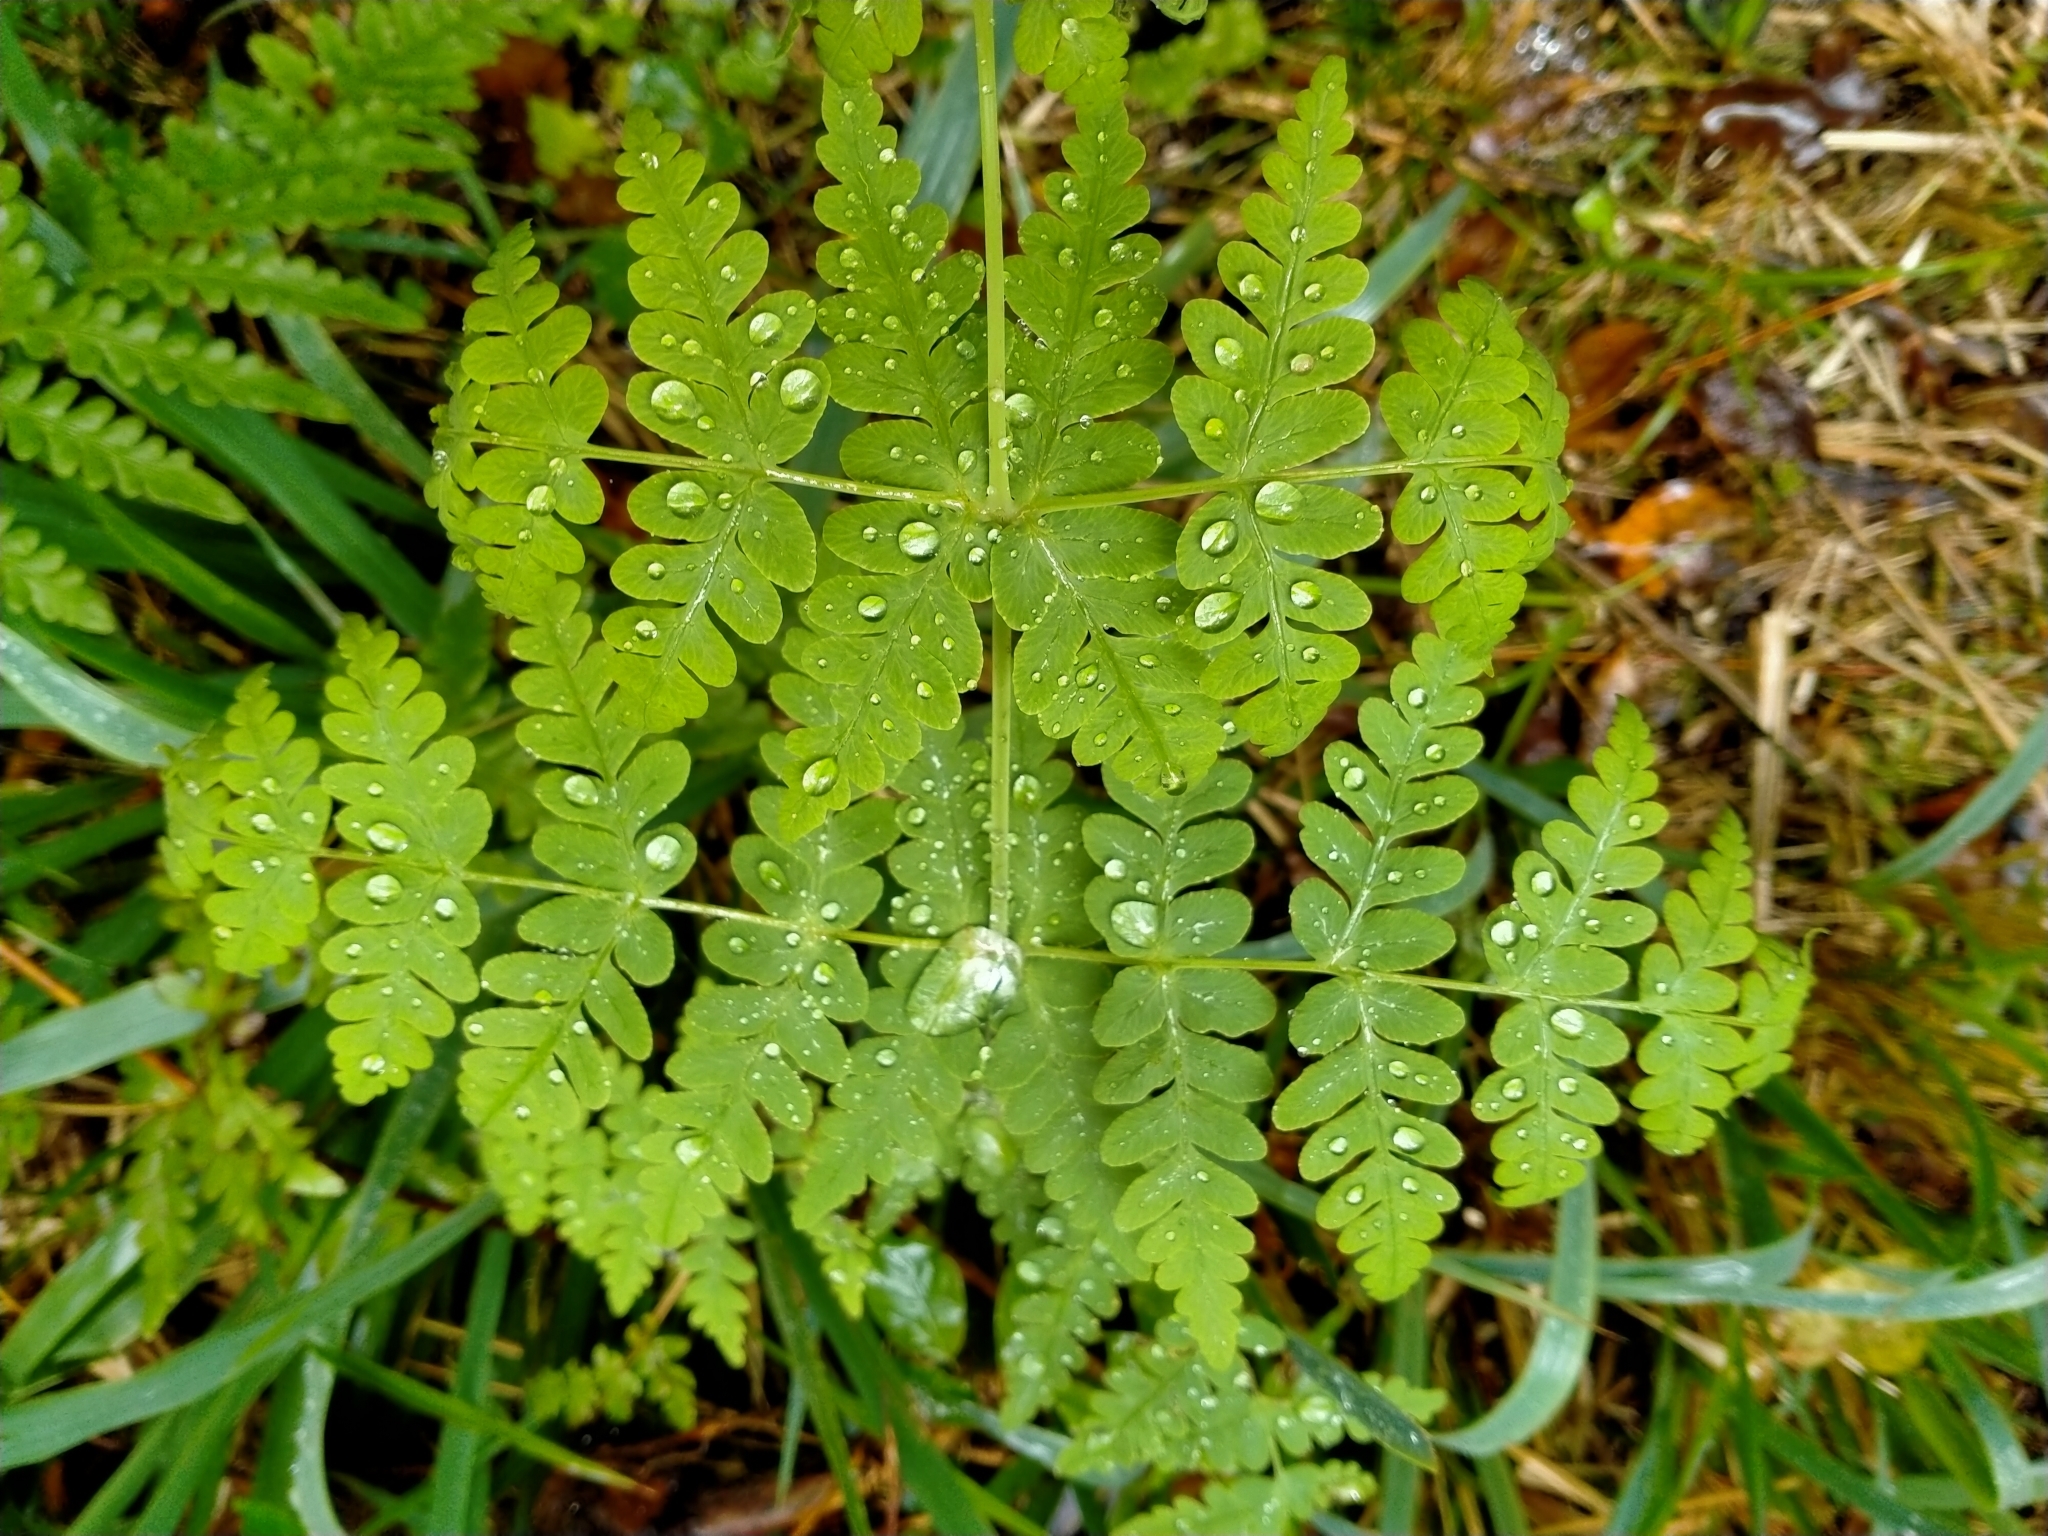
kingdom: Plantae
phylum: Tracheophyta
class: Polypodiopsida
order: Polypodiales
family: Dennstaedtiaceae
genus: Histiopteris
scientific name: Histiopteris incisa
